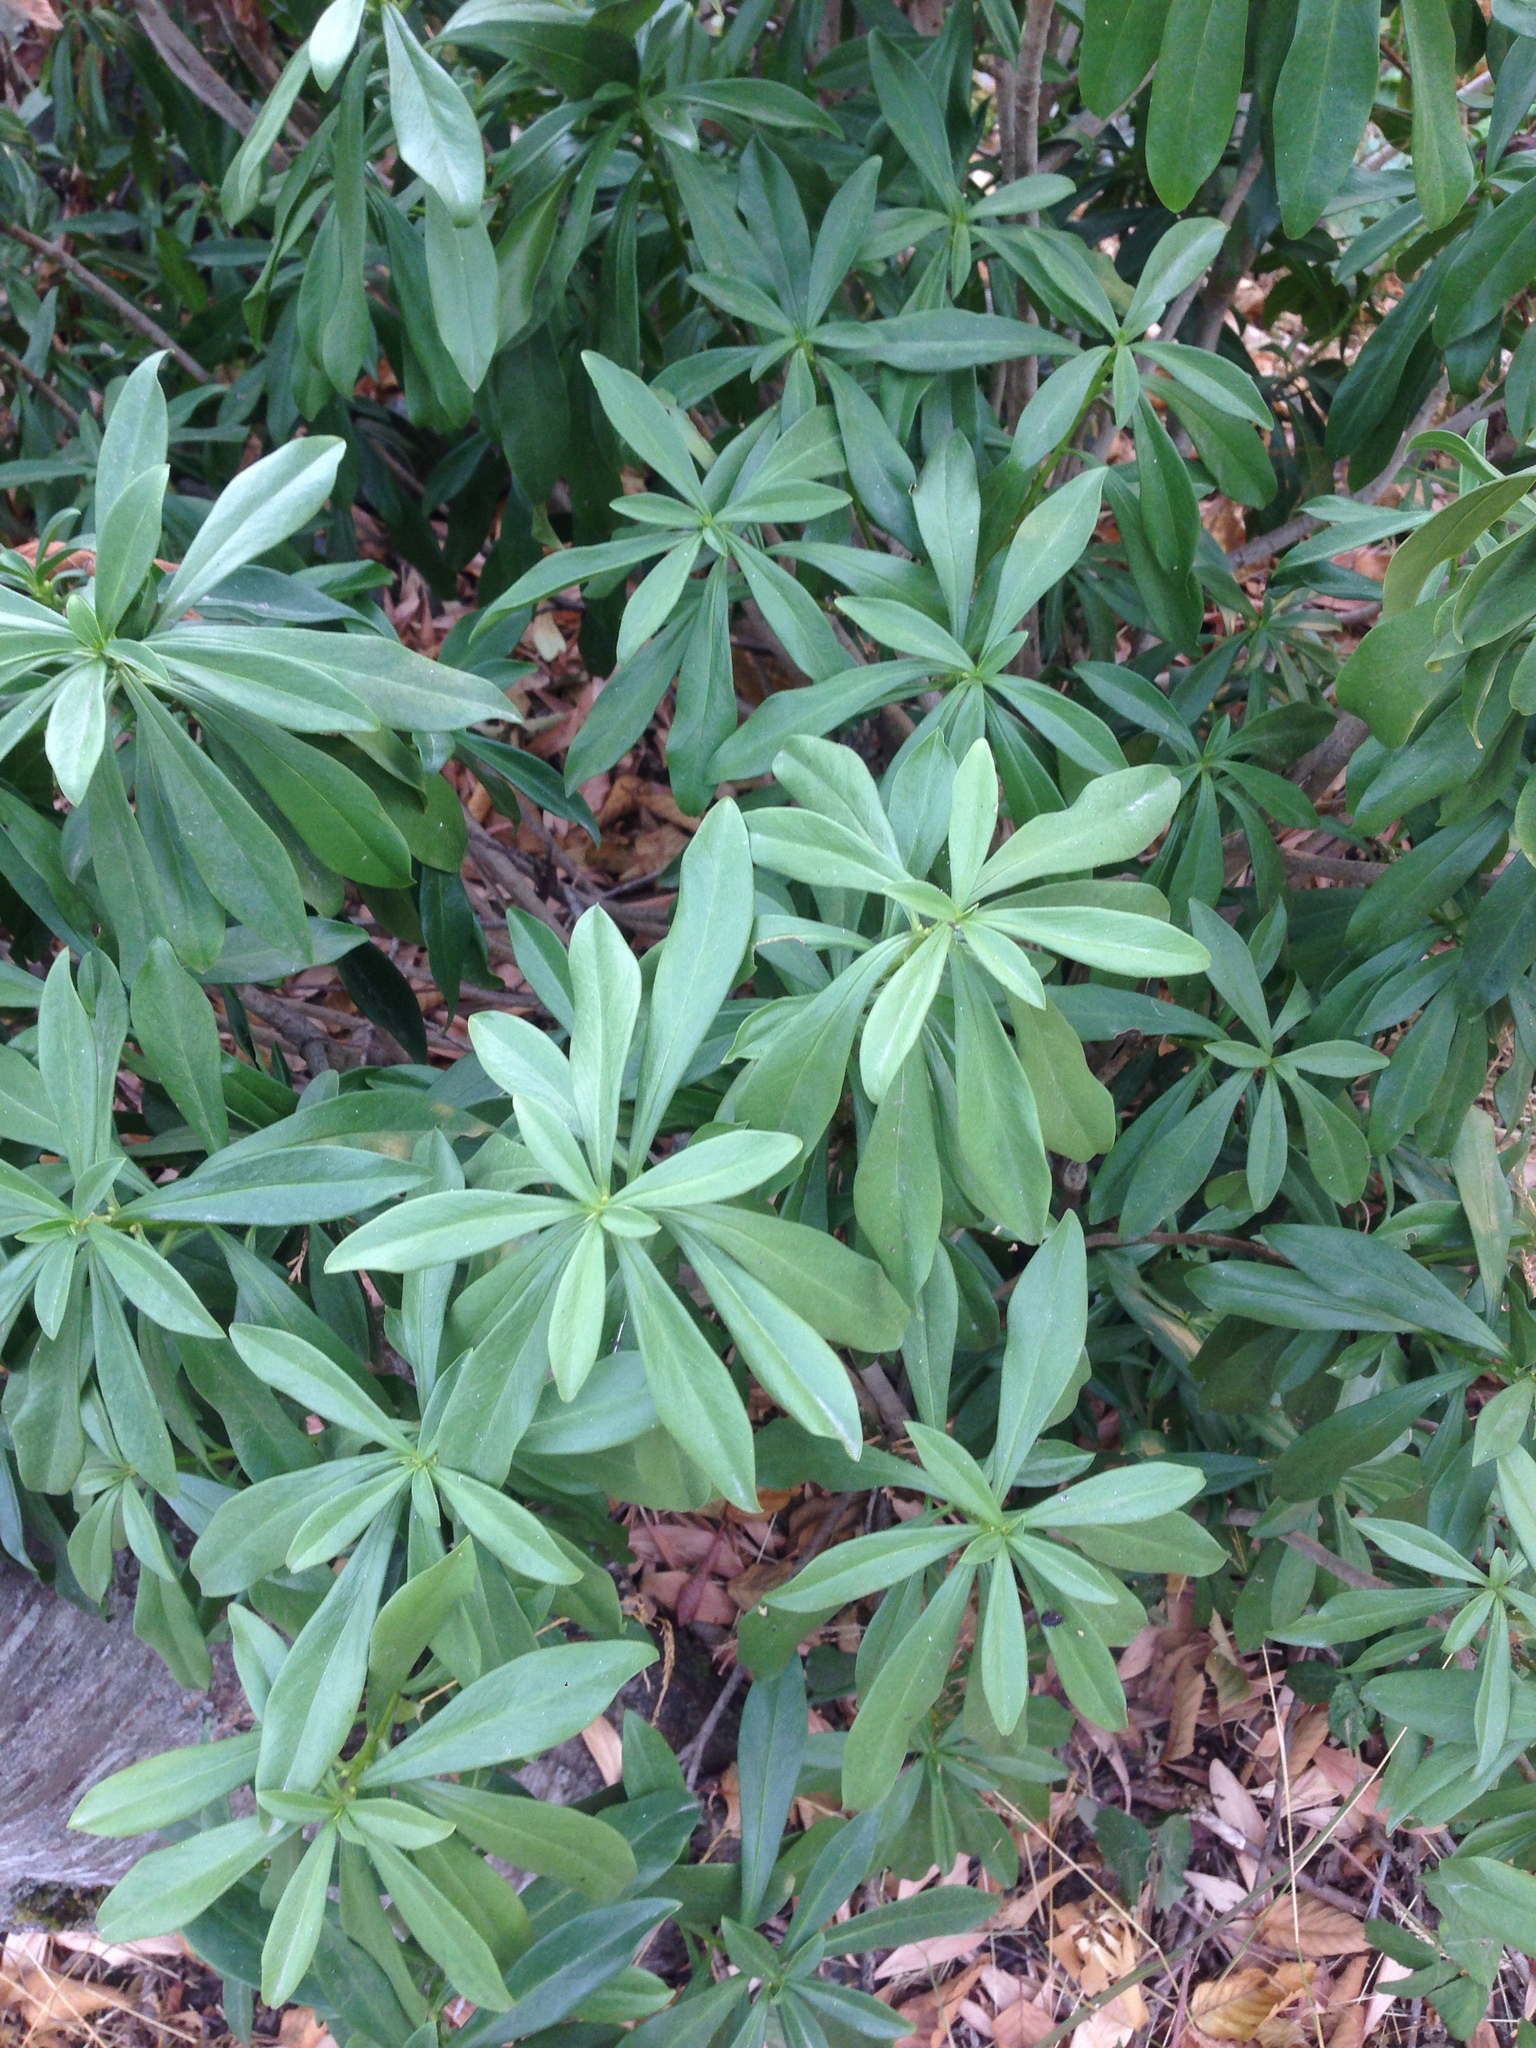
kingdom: Plantae
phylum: Tracheophyta
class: Magnoliopsida
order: Malvales
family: Thymelaeaceae
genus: Daphne
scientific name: Daphne laureola
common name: Spurge-laurel
